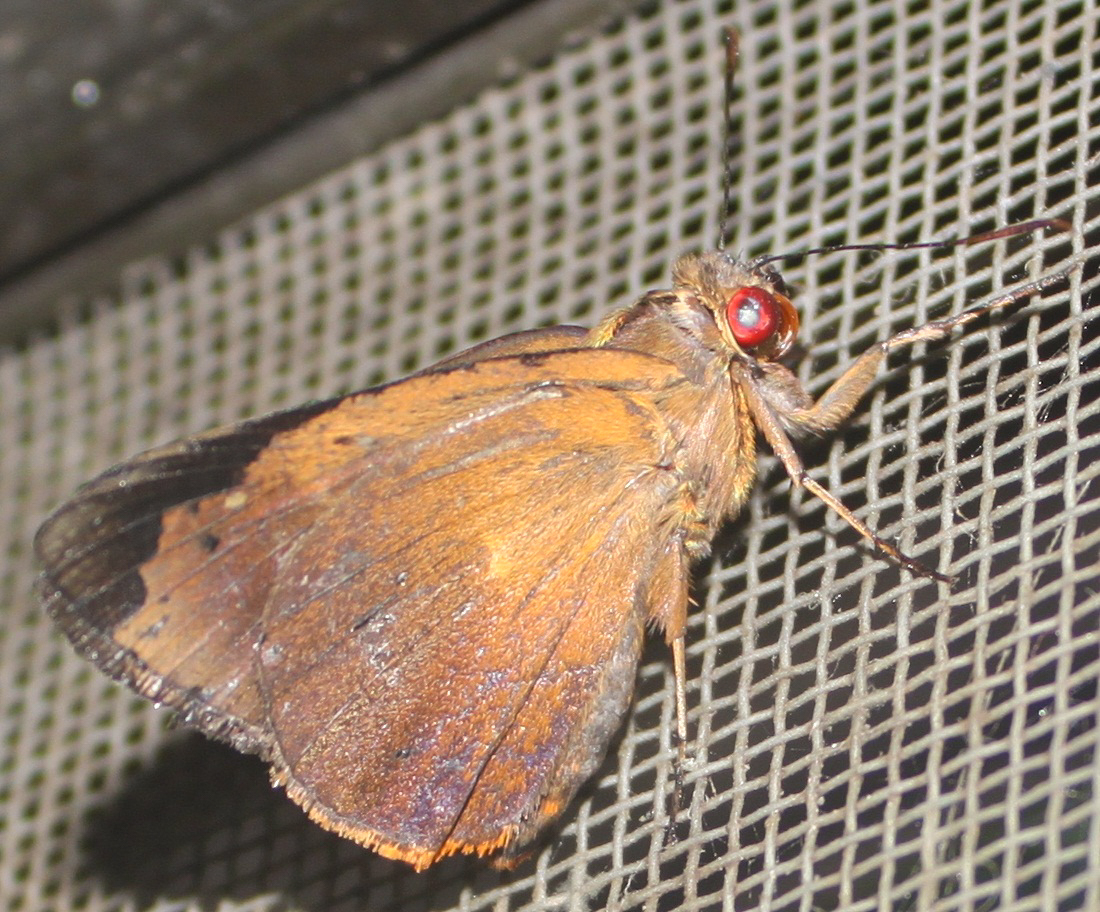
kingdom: Animalia
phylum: Arthropoda
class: Insecta
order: Lepidoptera
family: Hesperiidae
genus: Zela
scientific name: Zela zeus
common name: Orange-ciliate palmer
